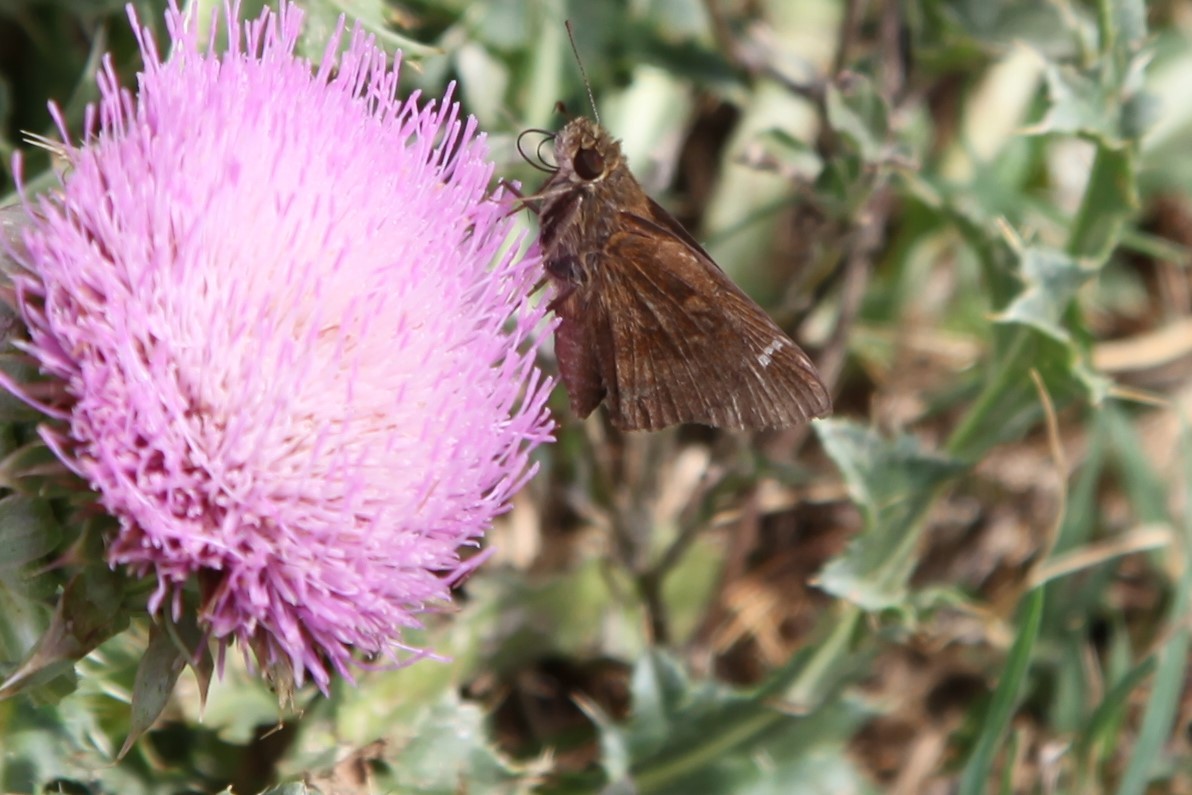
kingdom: Animalia
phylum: Arthropoda
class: Insecta
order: Lepidoptera
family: Hesperiidae
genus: Lerema
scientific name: Lerema accius
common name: Clouded skipper
